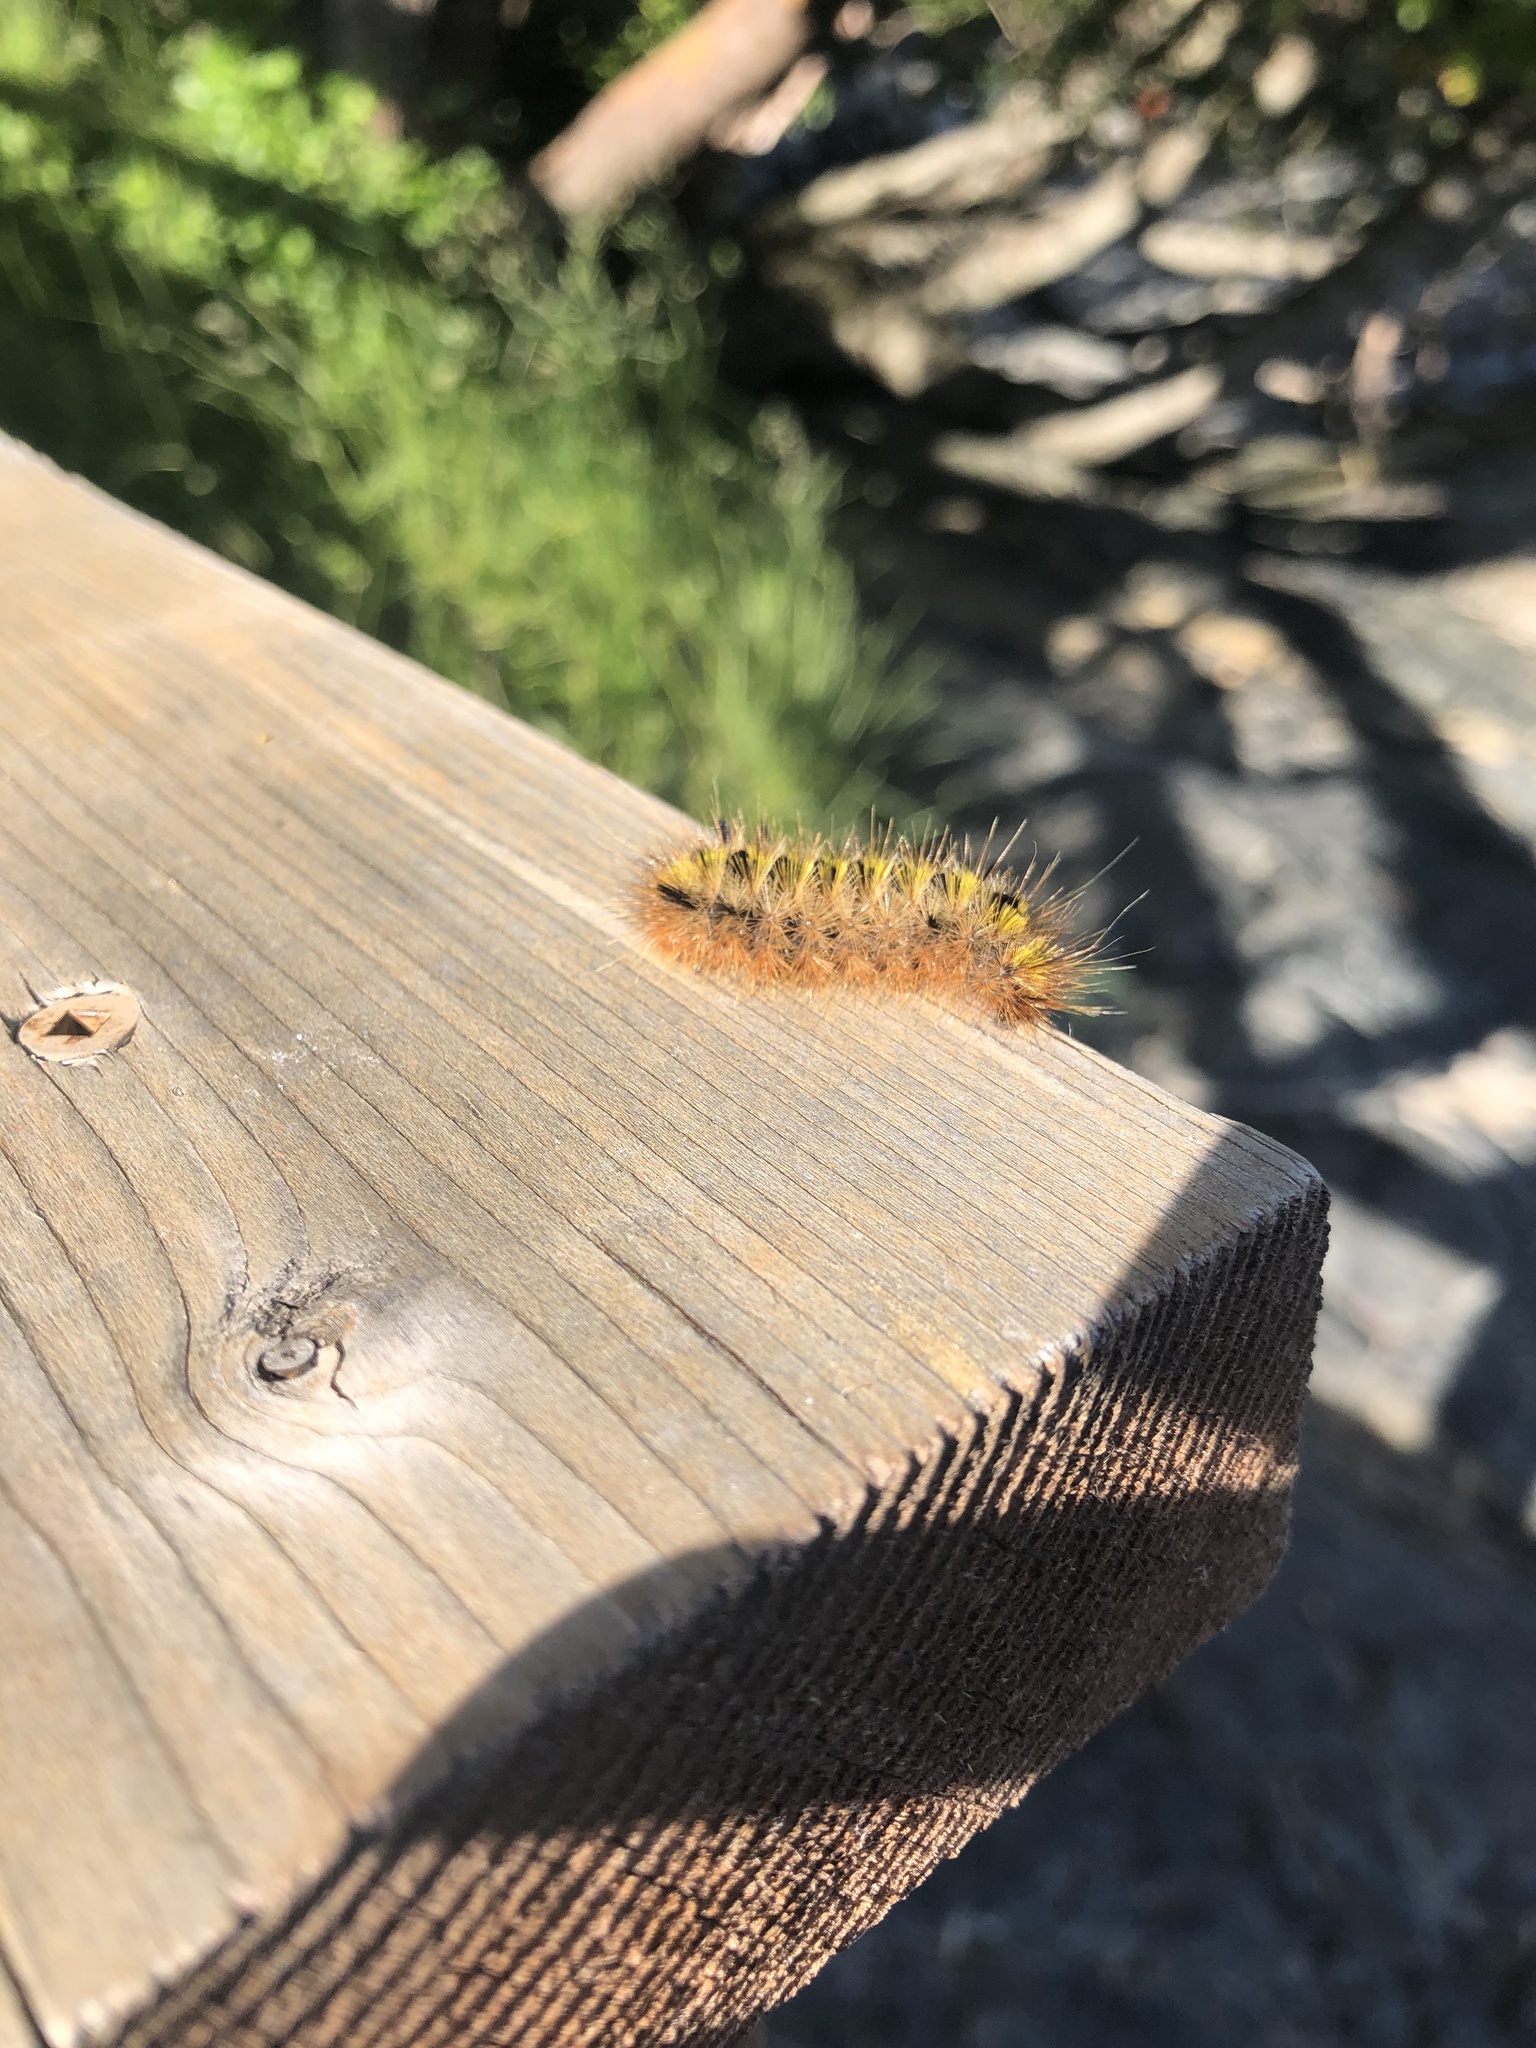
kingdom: Animalia
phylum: Arthropoda
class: Insecta
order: Lepidoptera
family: Erebidae
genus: Lophocampa
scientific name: Lophocampa argentata
